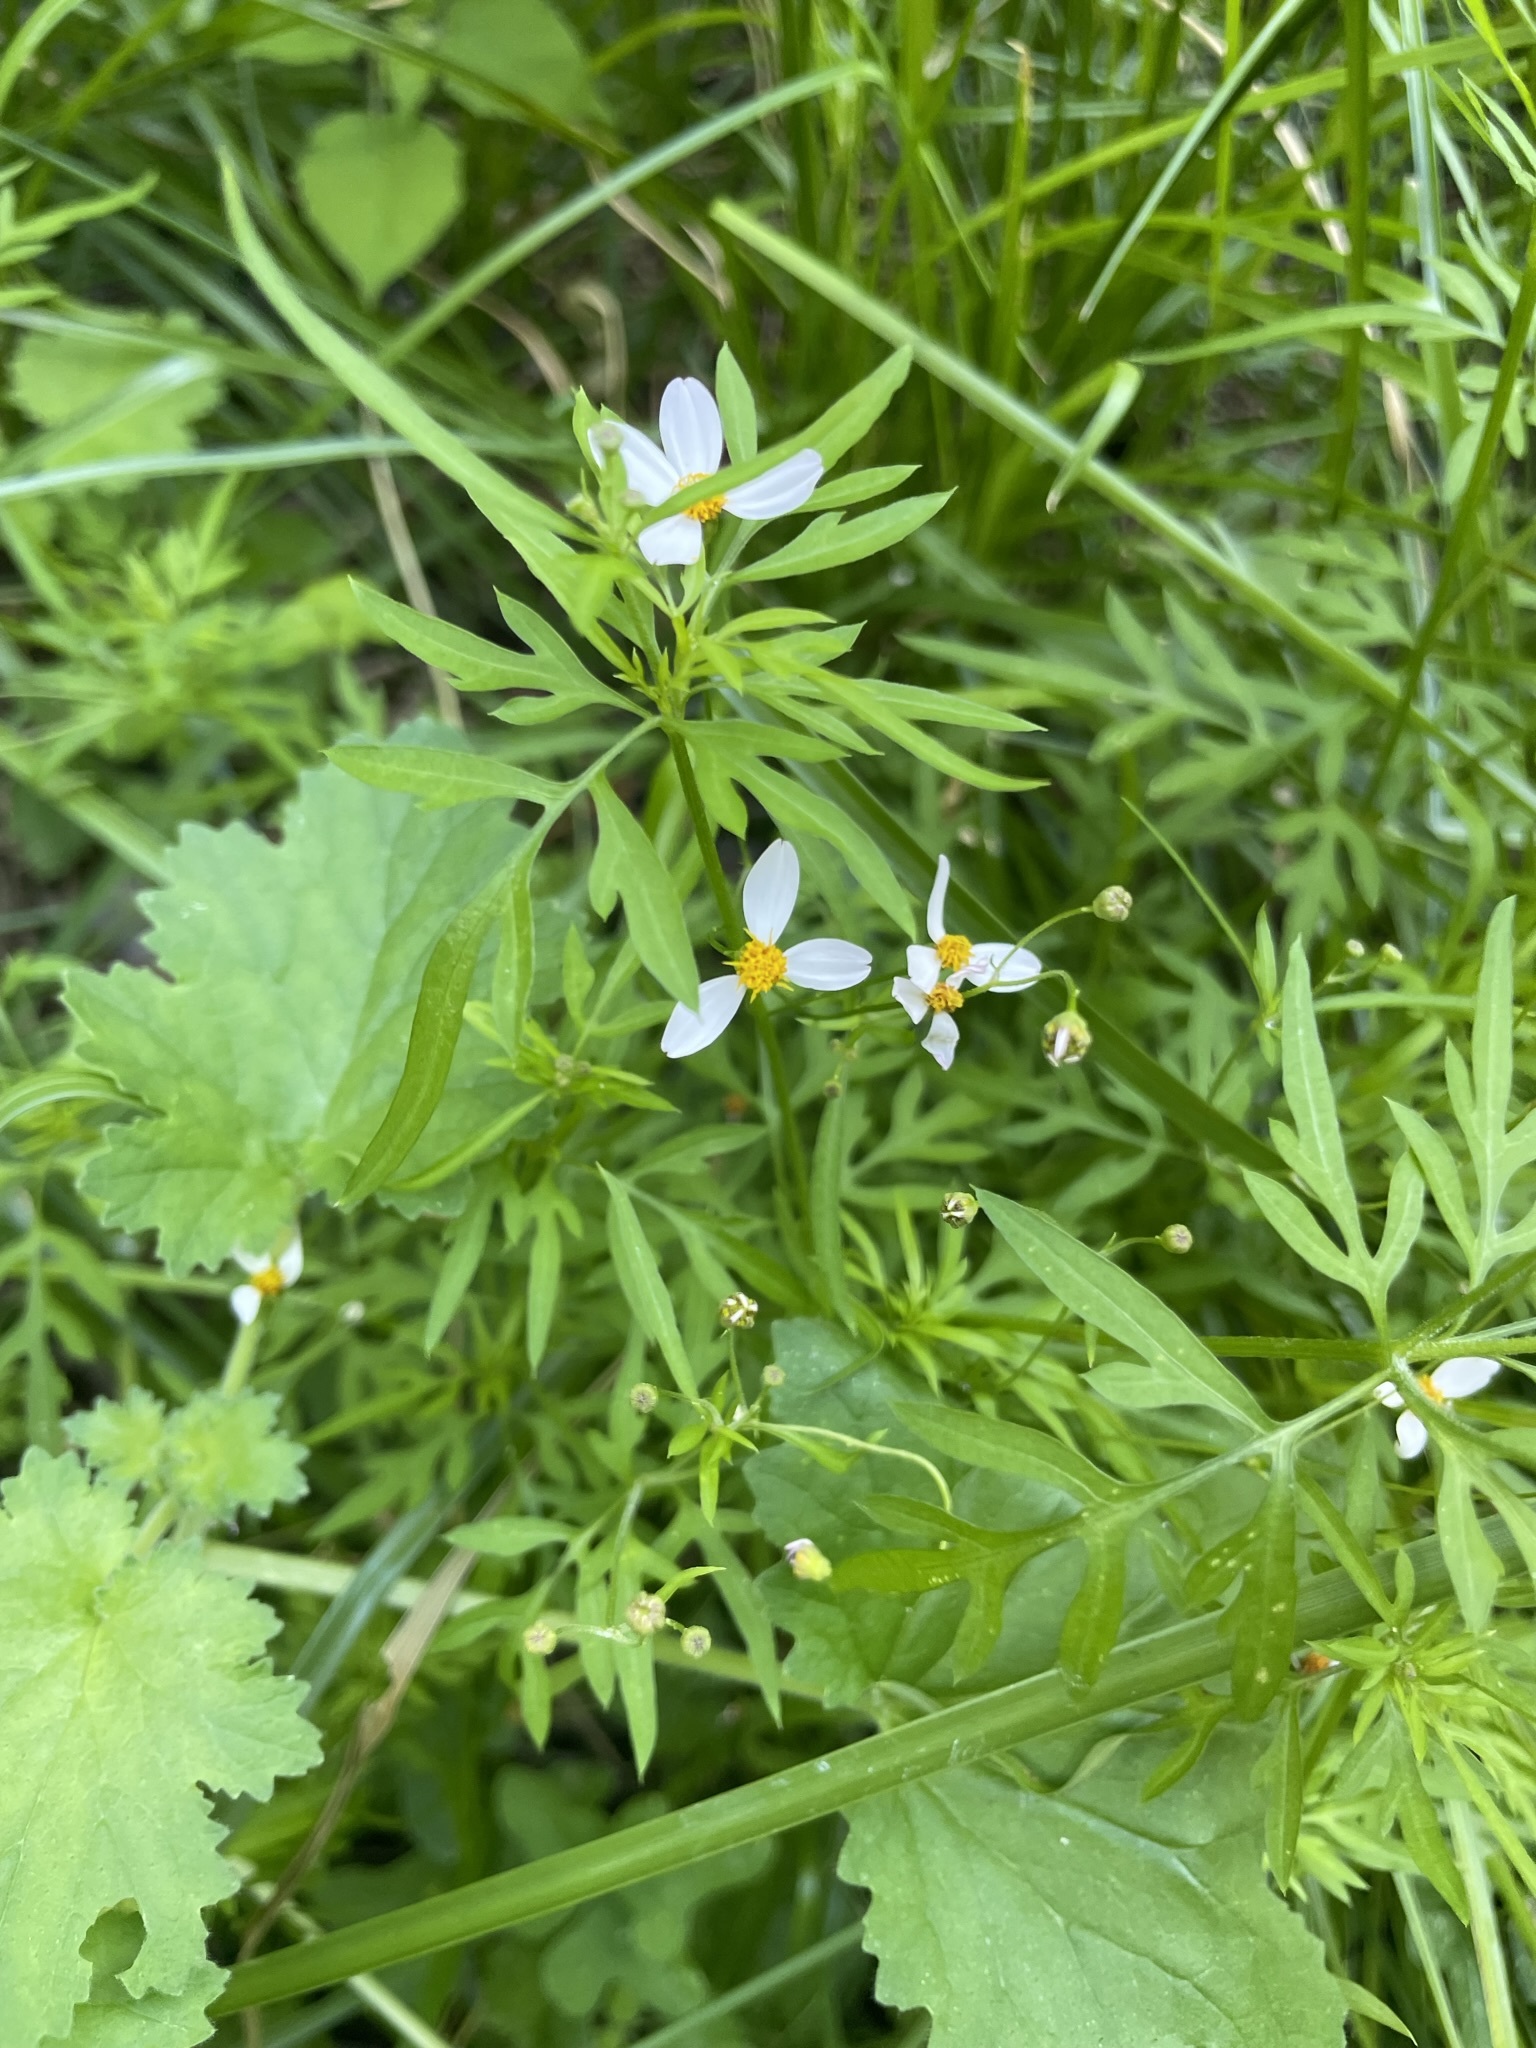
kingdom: Plantae
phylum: Tracheophyta
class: Magnoliopsida
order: Asterales
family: Asteraceae
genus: Coreocarpus
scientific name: Coreocarpus parthenioides
